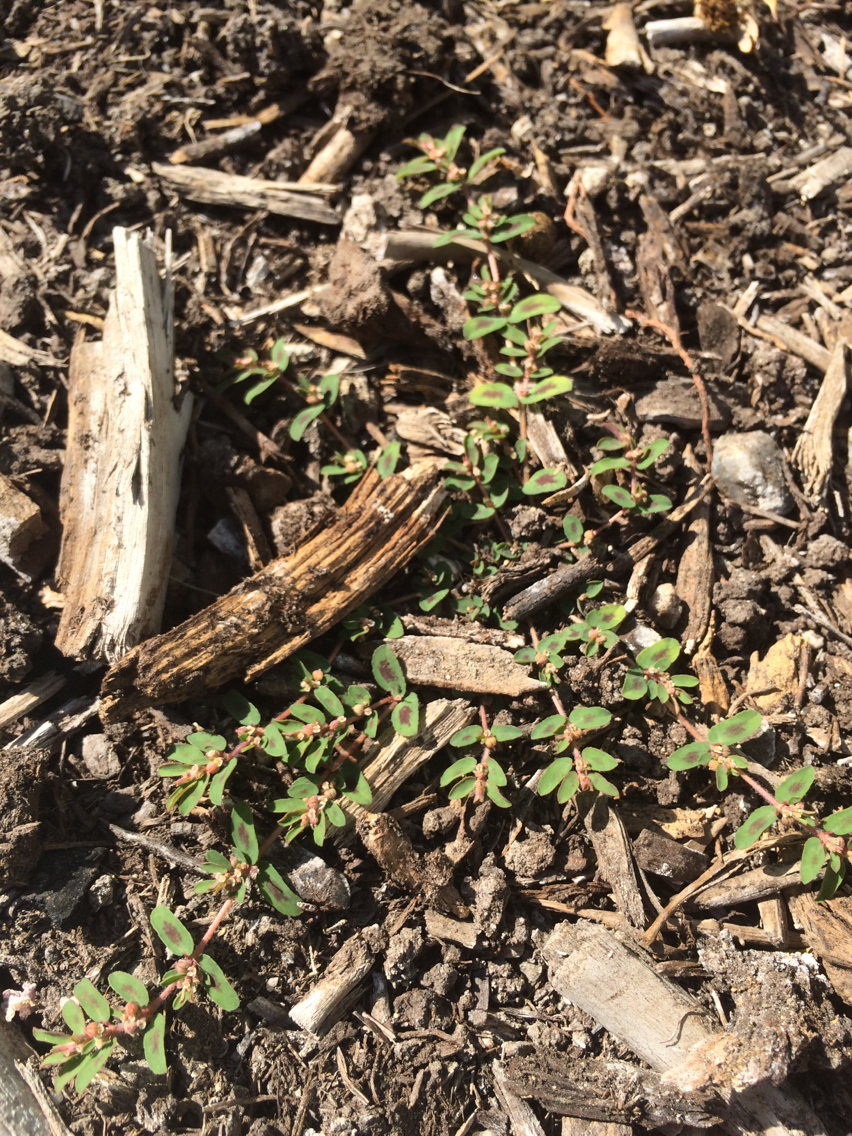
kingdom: Plantae
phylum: Tracheophyta
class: Magnoliopsida
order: Malpighiales
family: Euphorbiaceae
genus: Euphorbia
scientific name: Euphorbia maculata
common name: Spotted spurge
